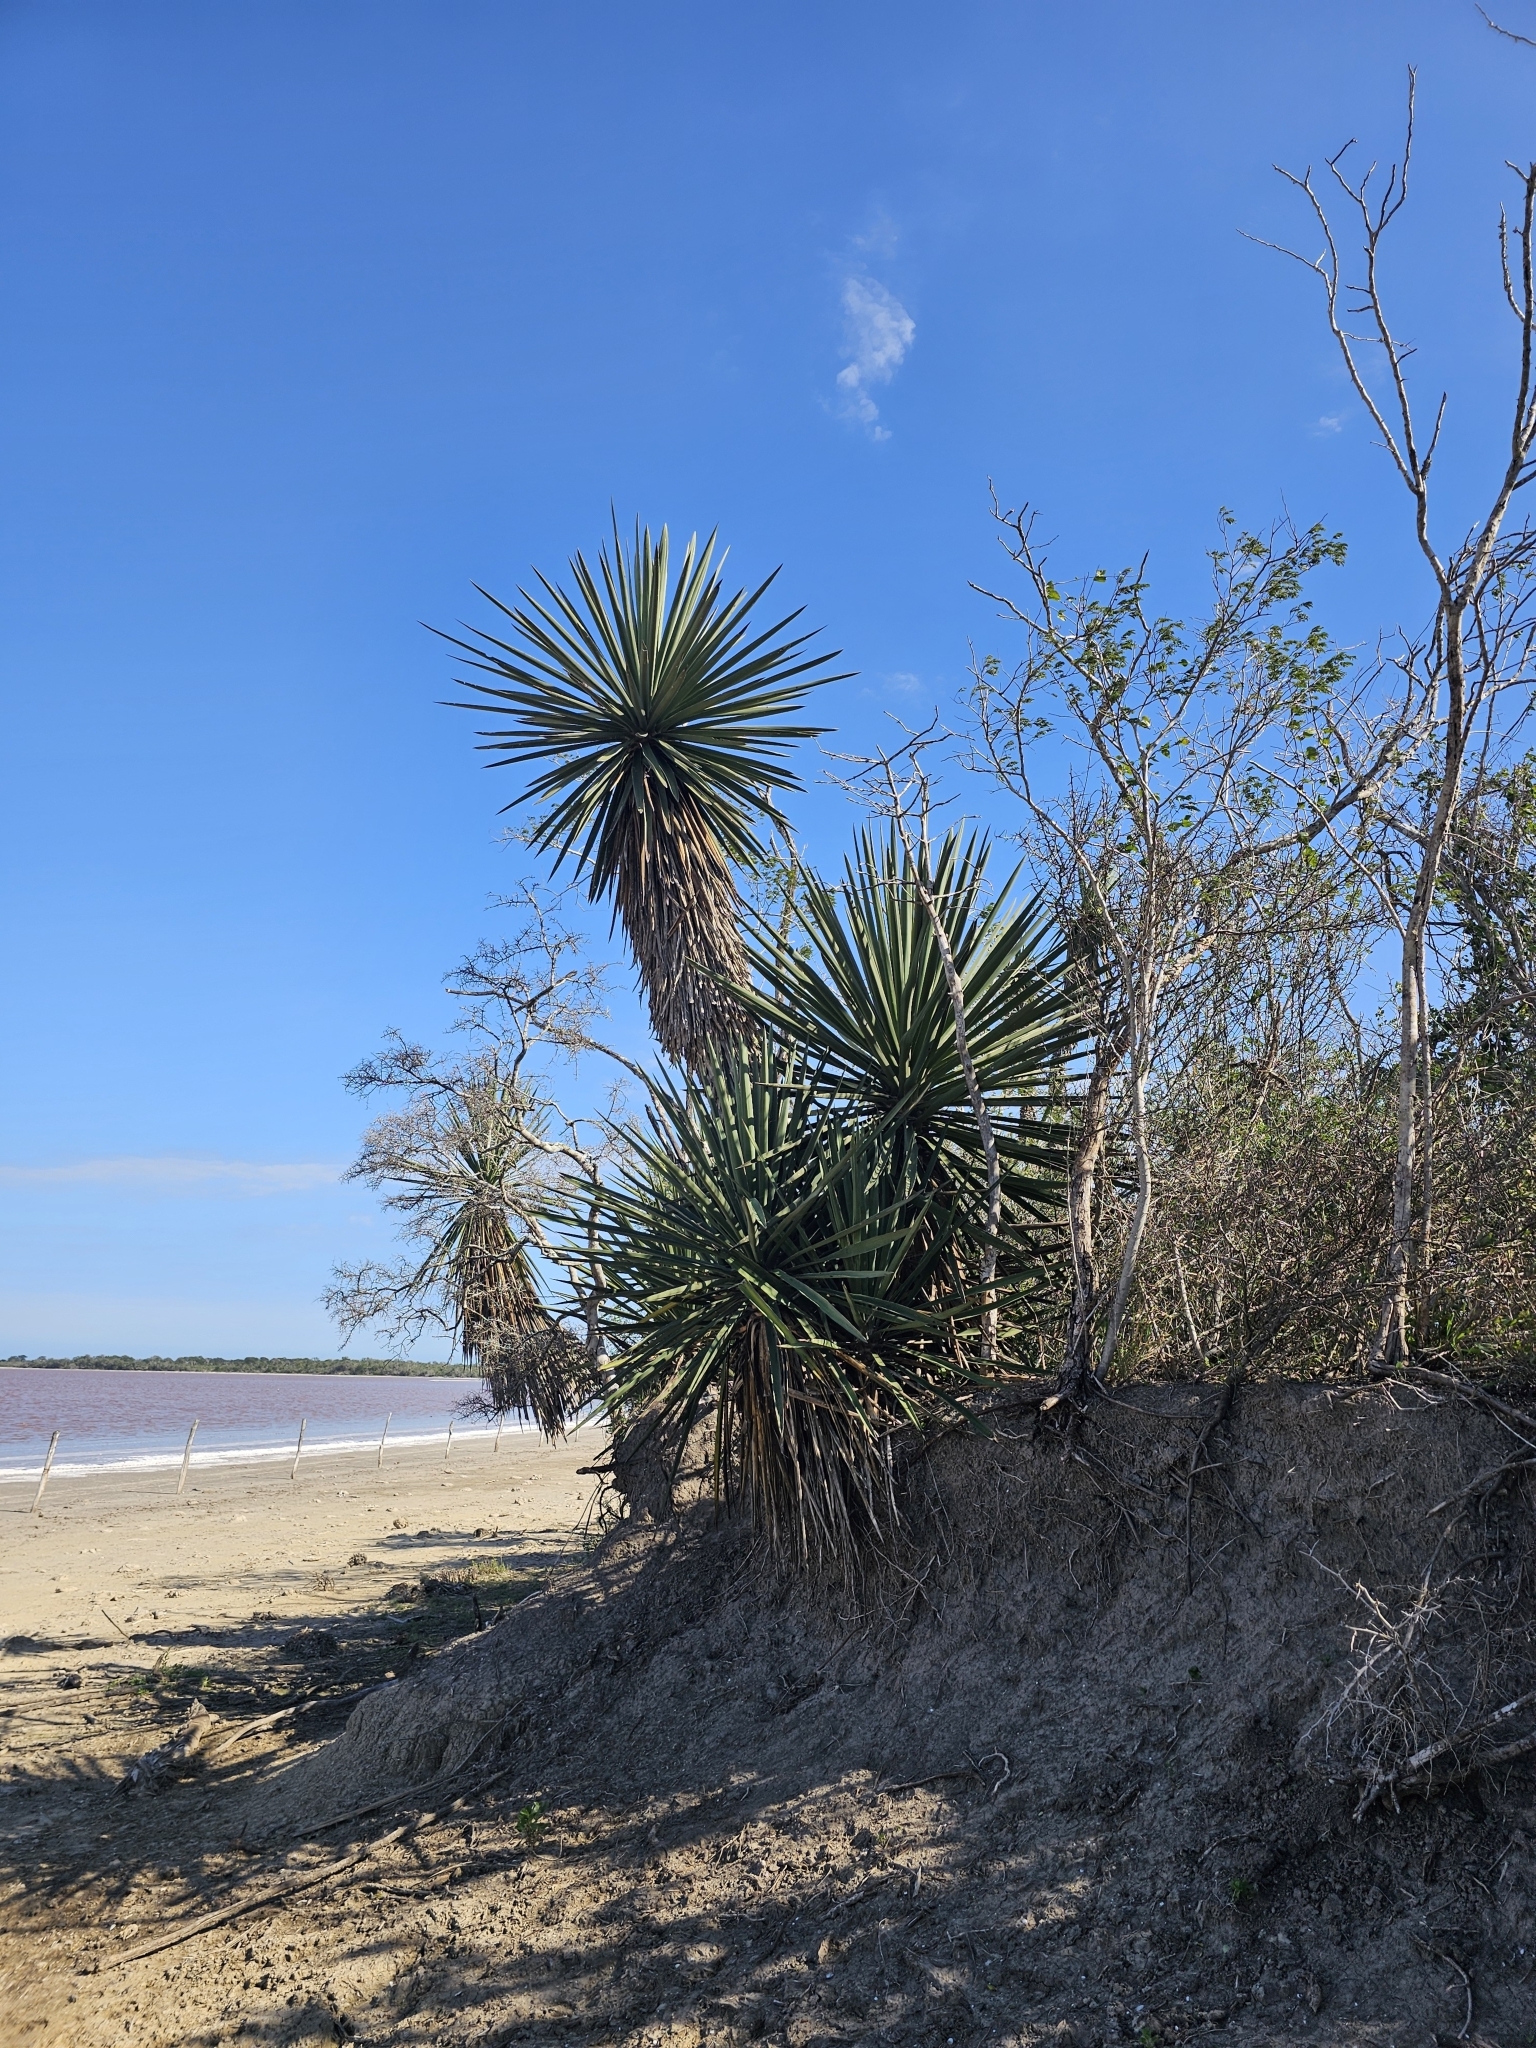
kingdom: Plantae
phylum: Tracheophyta
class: Liliopsida
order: Asparagales
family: Asparagaceae
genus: Yucca
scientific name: Yucca treculiana
